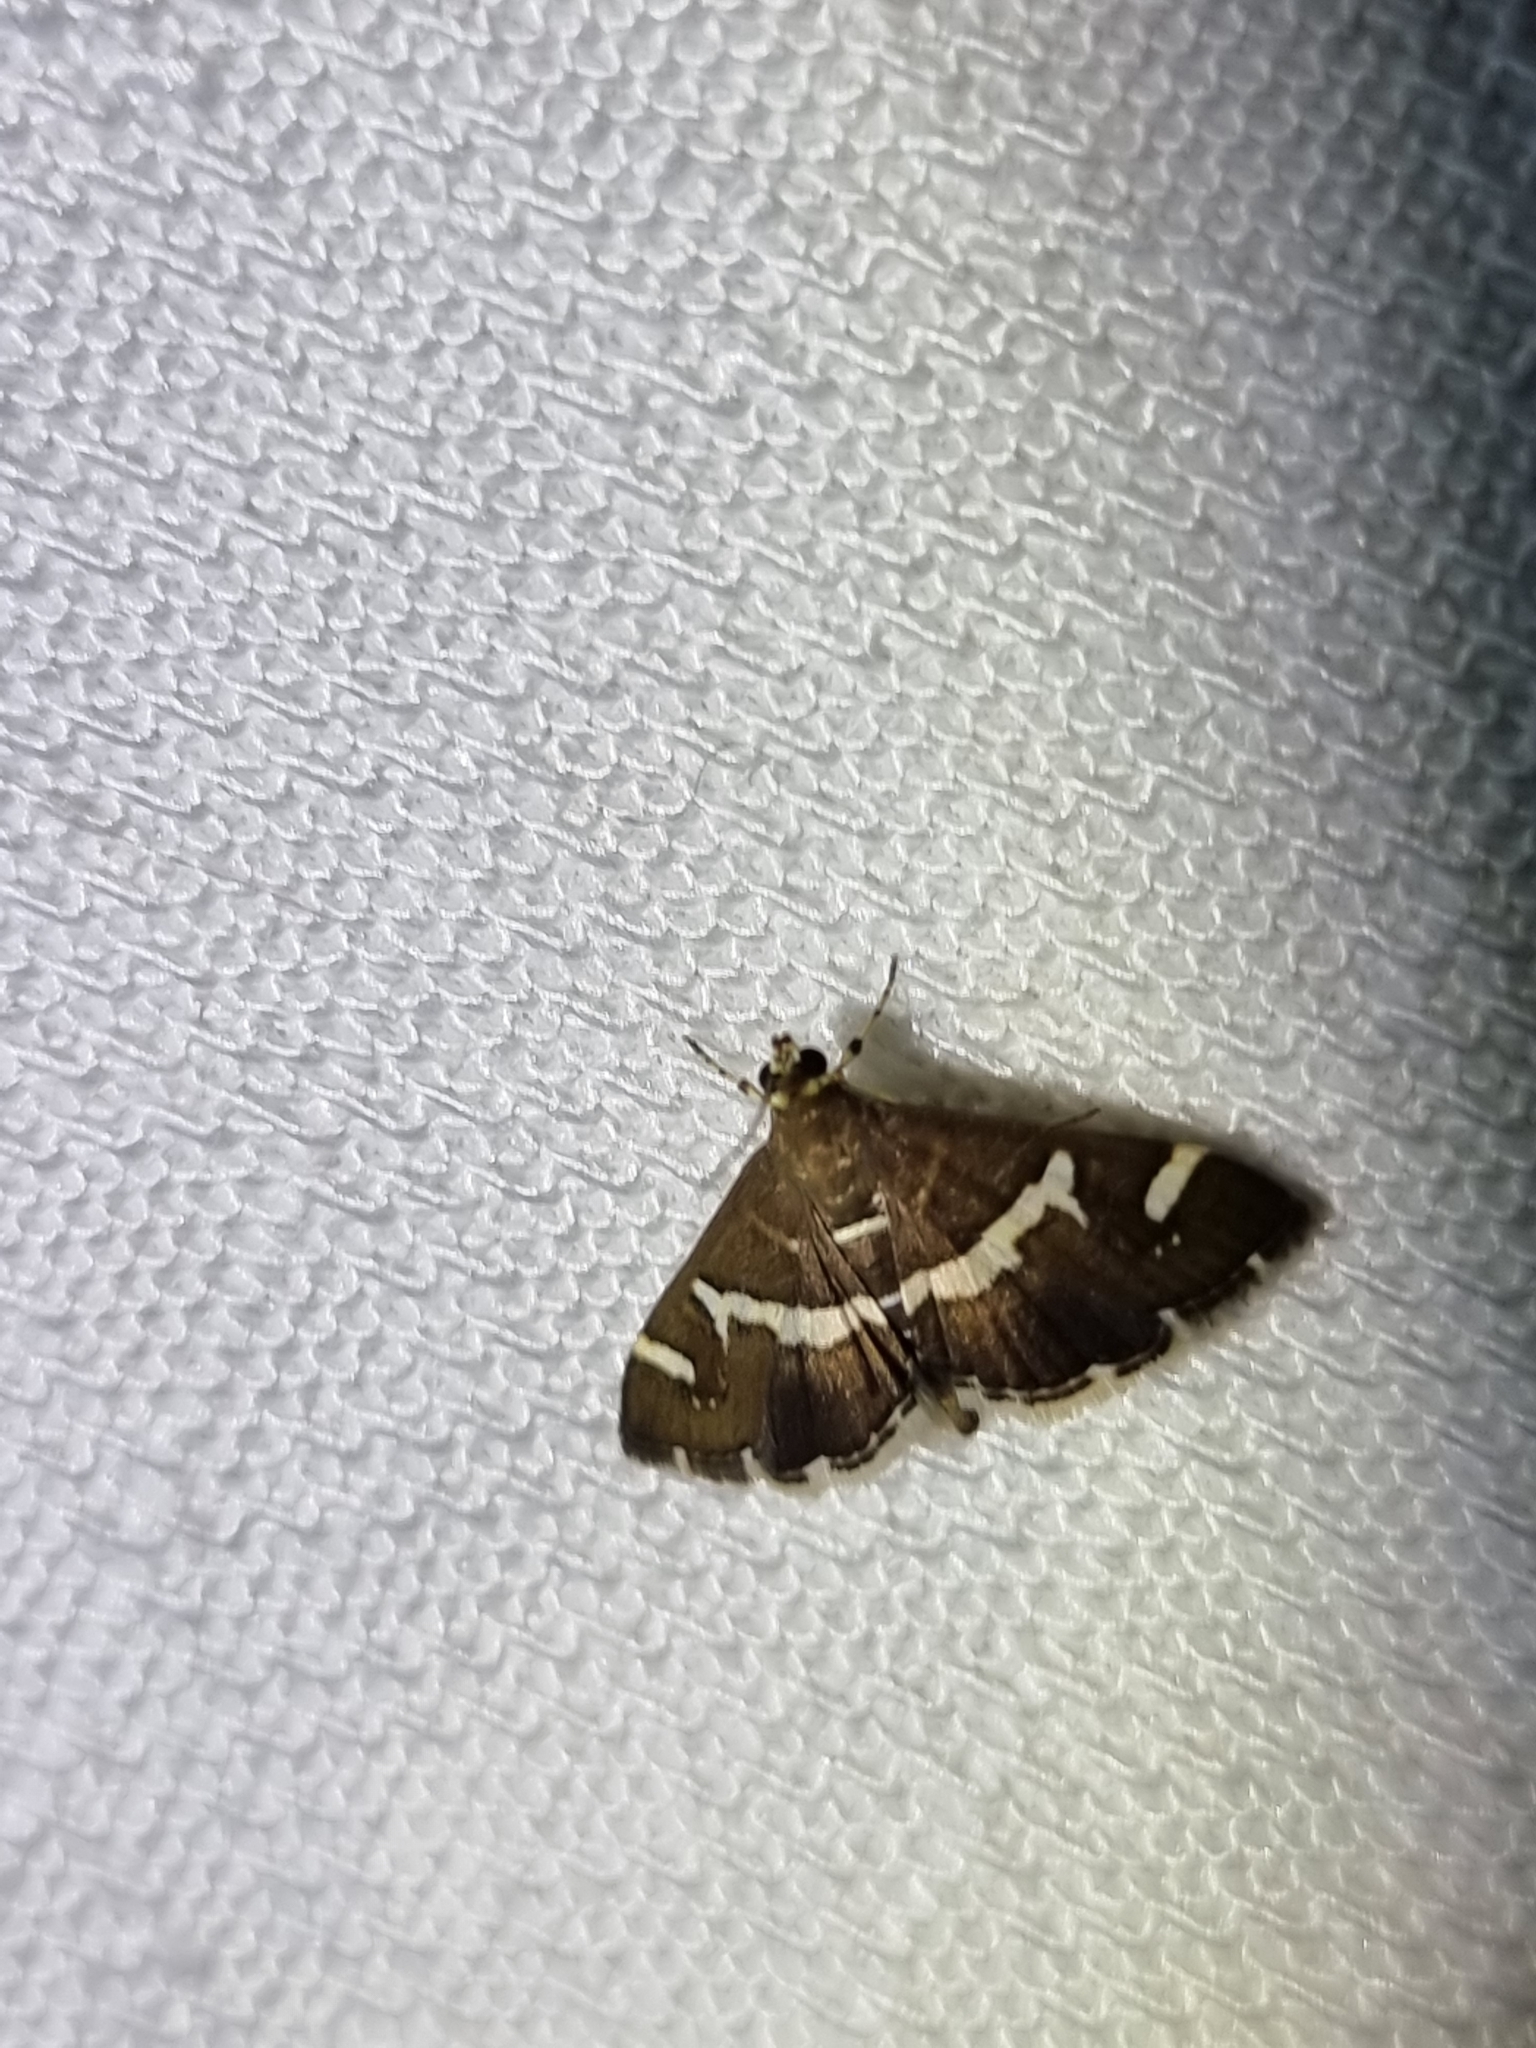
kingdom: Animalia
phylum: Arthropoda
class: Insecta
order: Lepidoptera
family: Crambidae
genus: Spoladea
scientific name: Spoladea recurvalis
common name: Beet webworm moth
